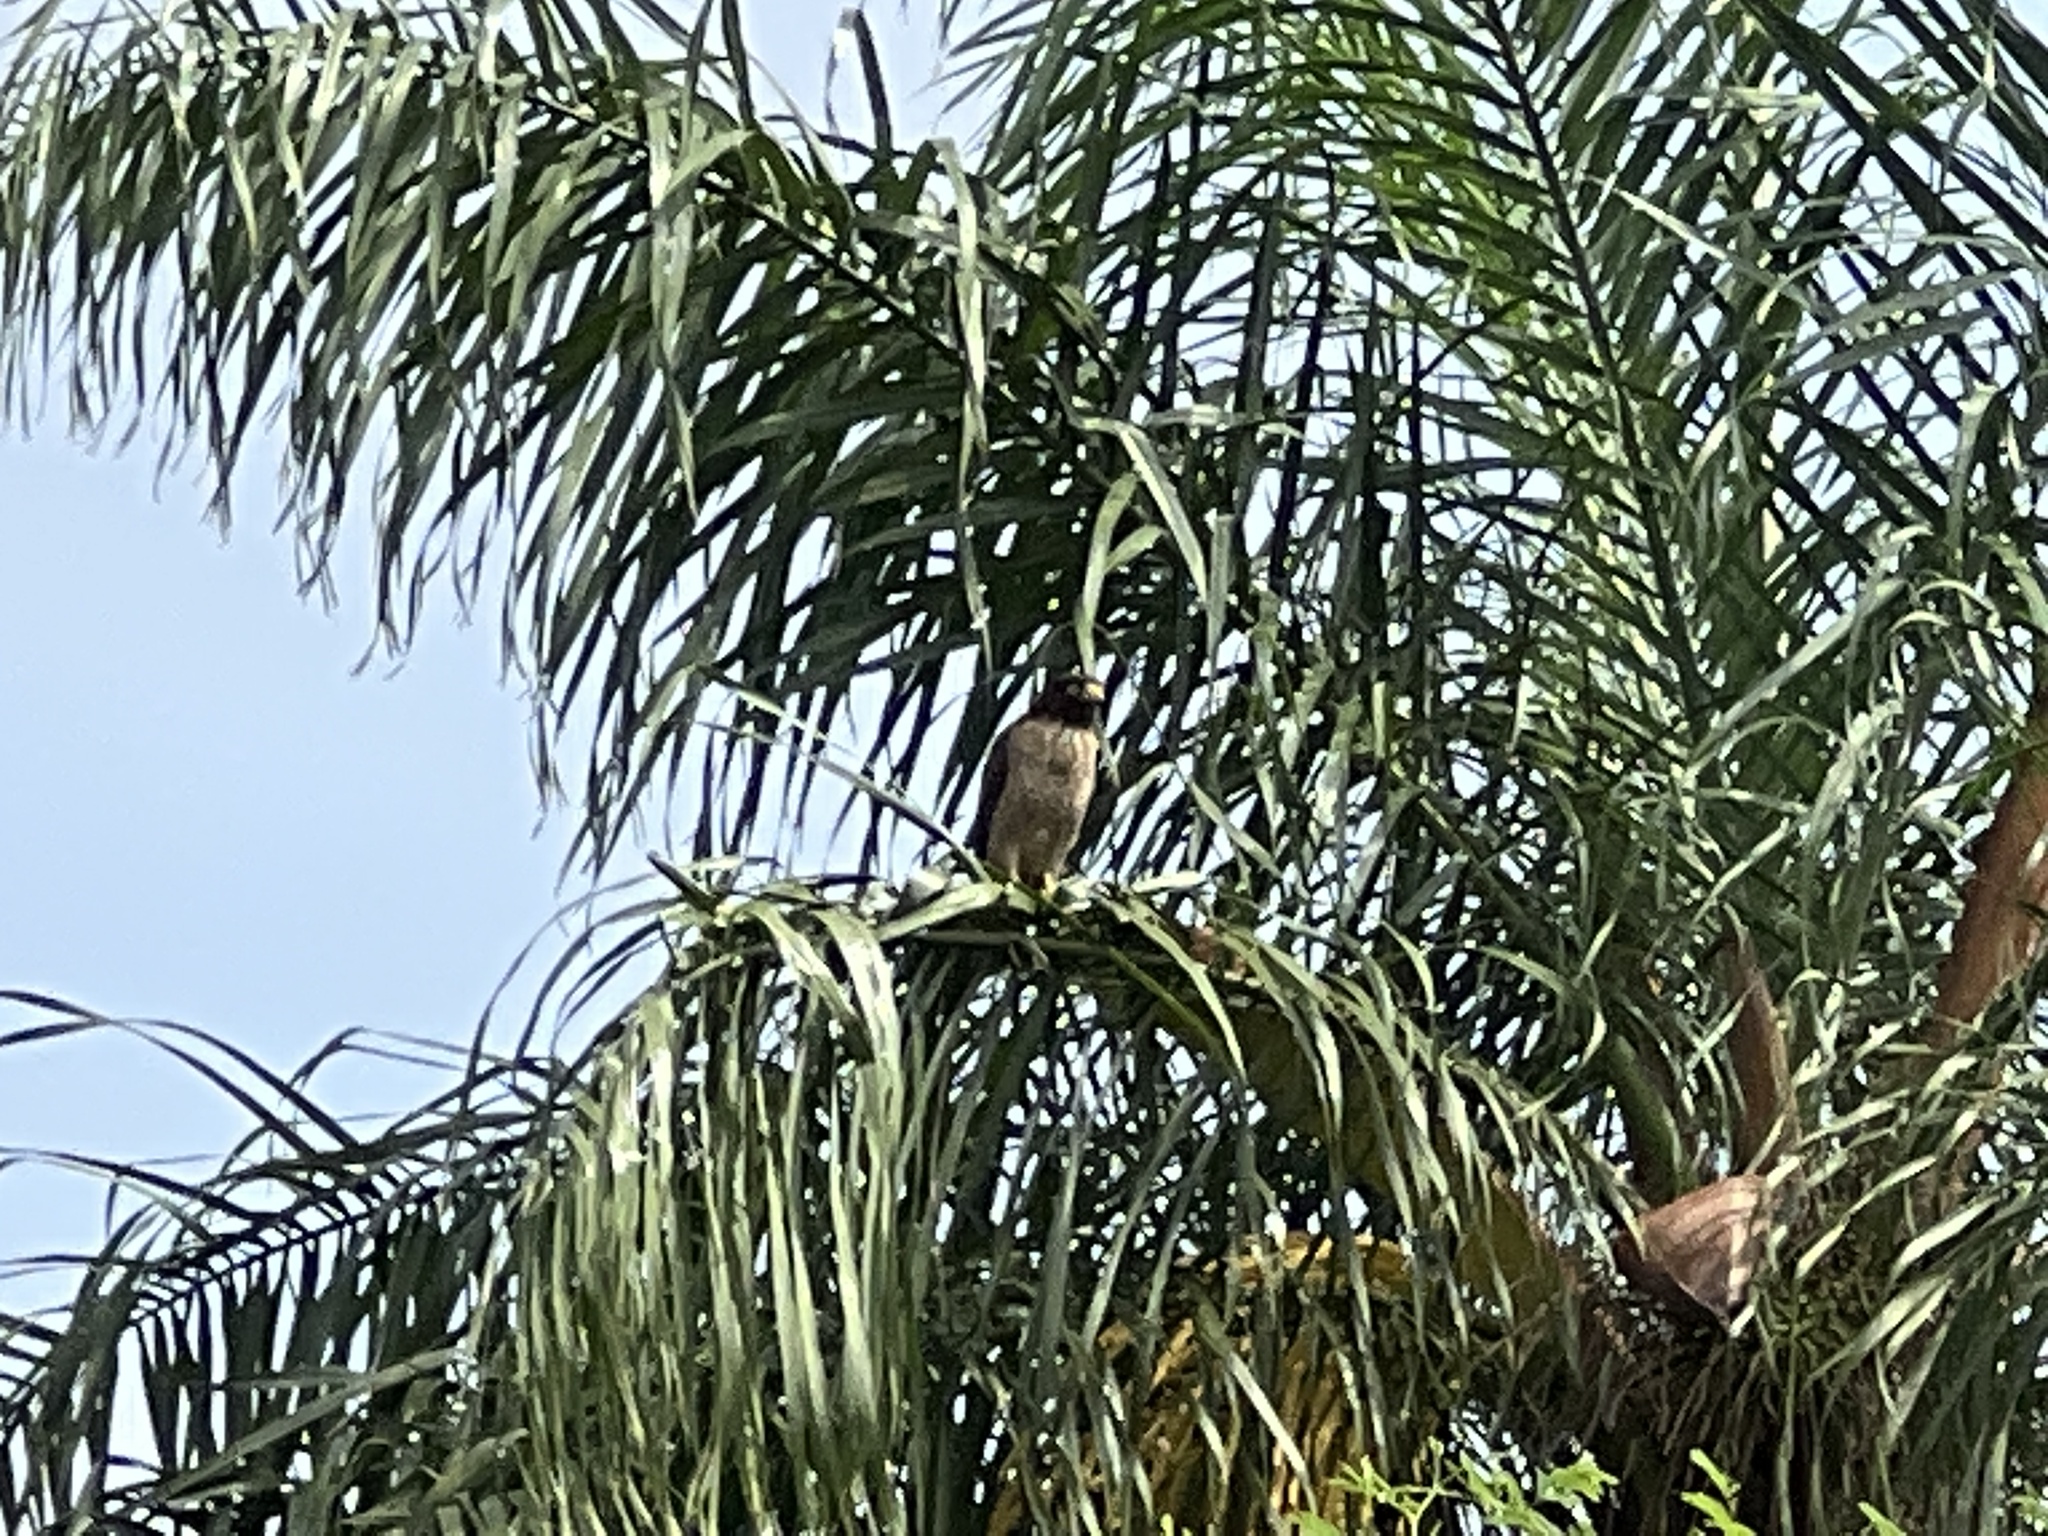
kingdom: Animalia
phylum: Chordata
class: Aves
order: Accipitriformes
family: Accipitridae
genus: Rupornis
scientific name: Rupornis magnirostris
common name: Roadside hawk
